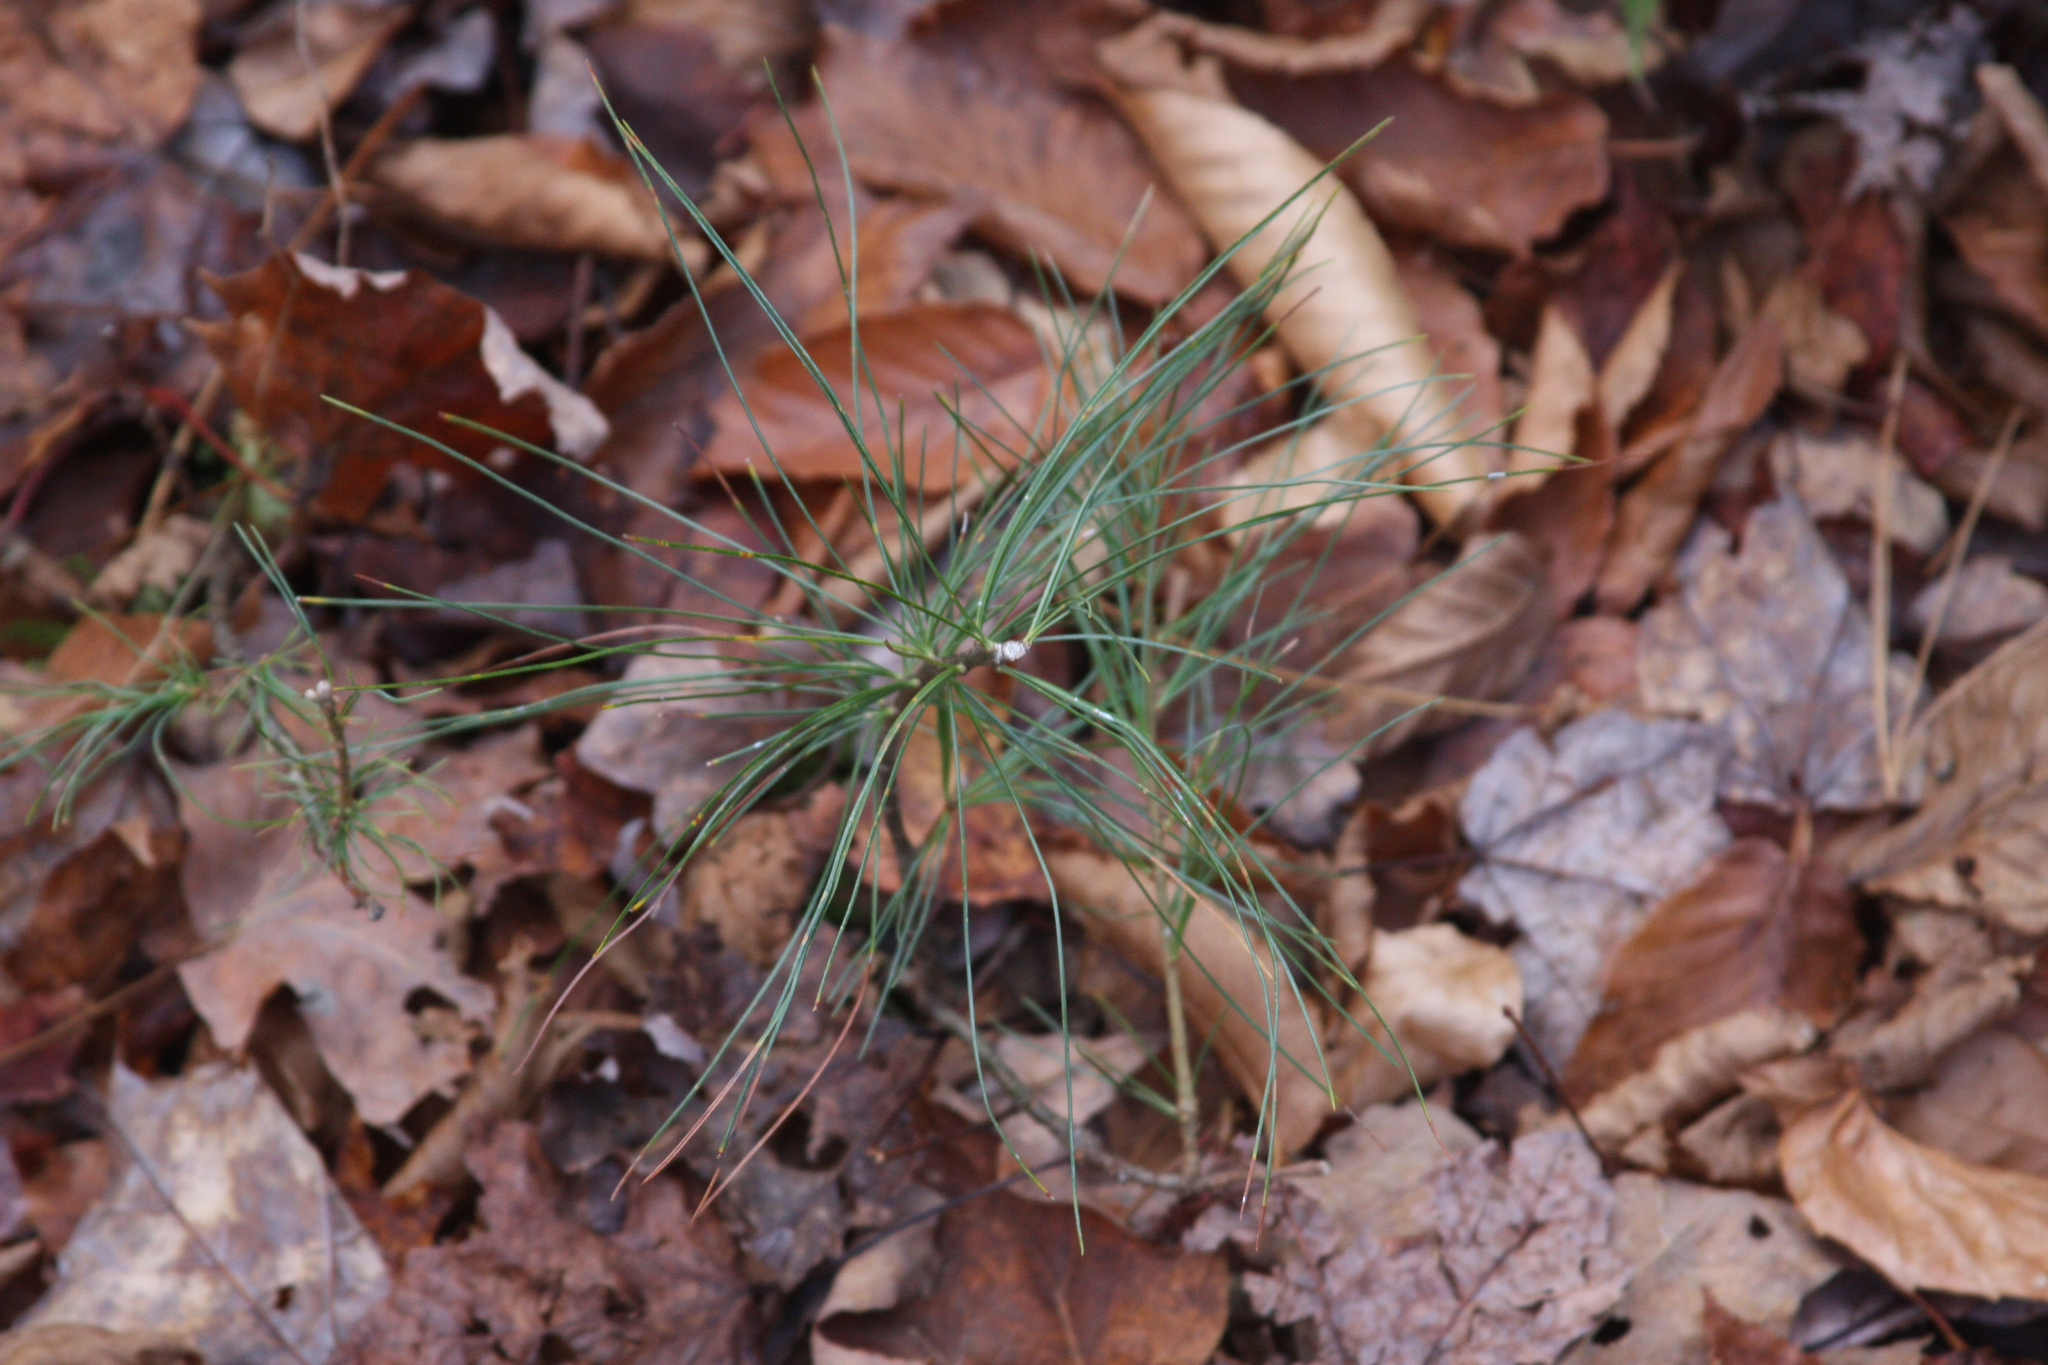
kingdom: Plantae
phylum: Tracheophyta
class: Pinopsida
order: Pinales
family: Pinaceae
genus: Pinus
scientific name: Pinus strobus
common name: Weymouth pine
